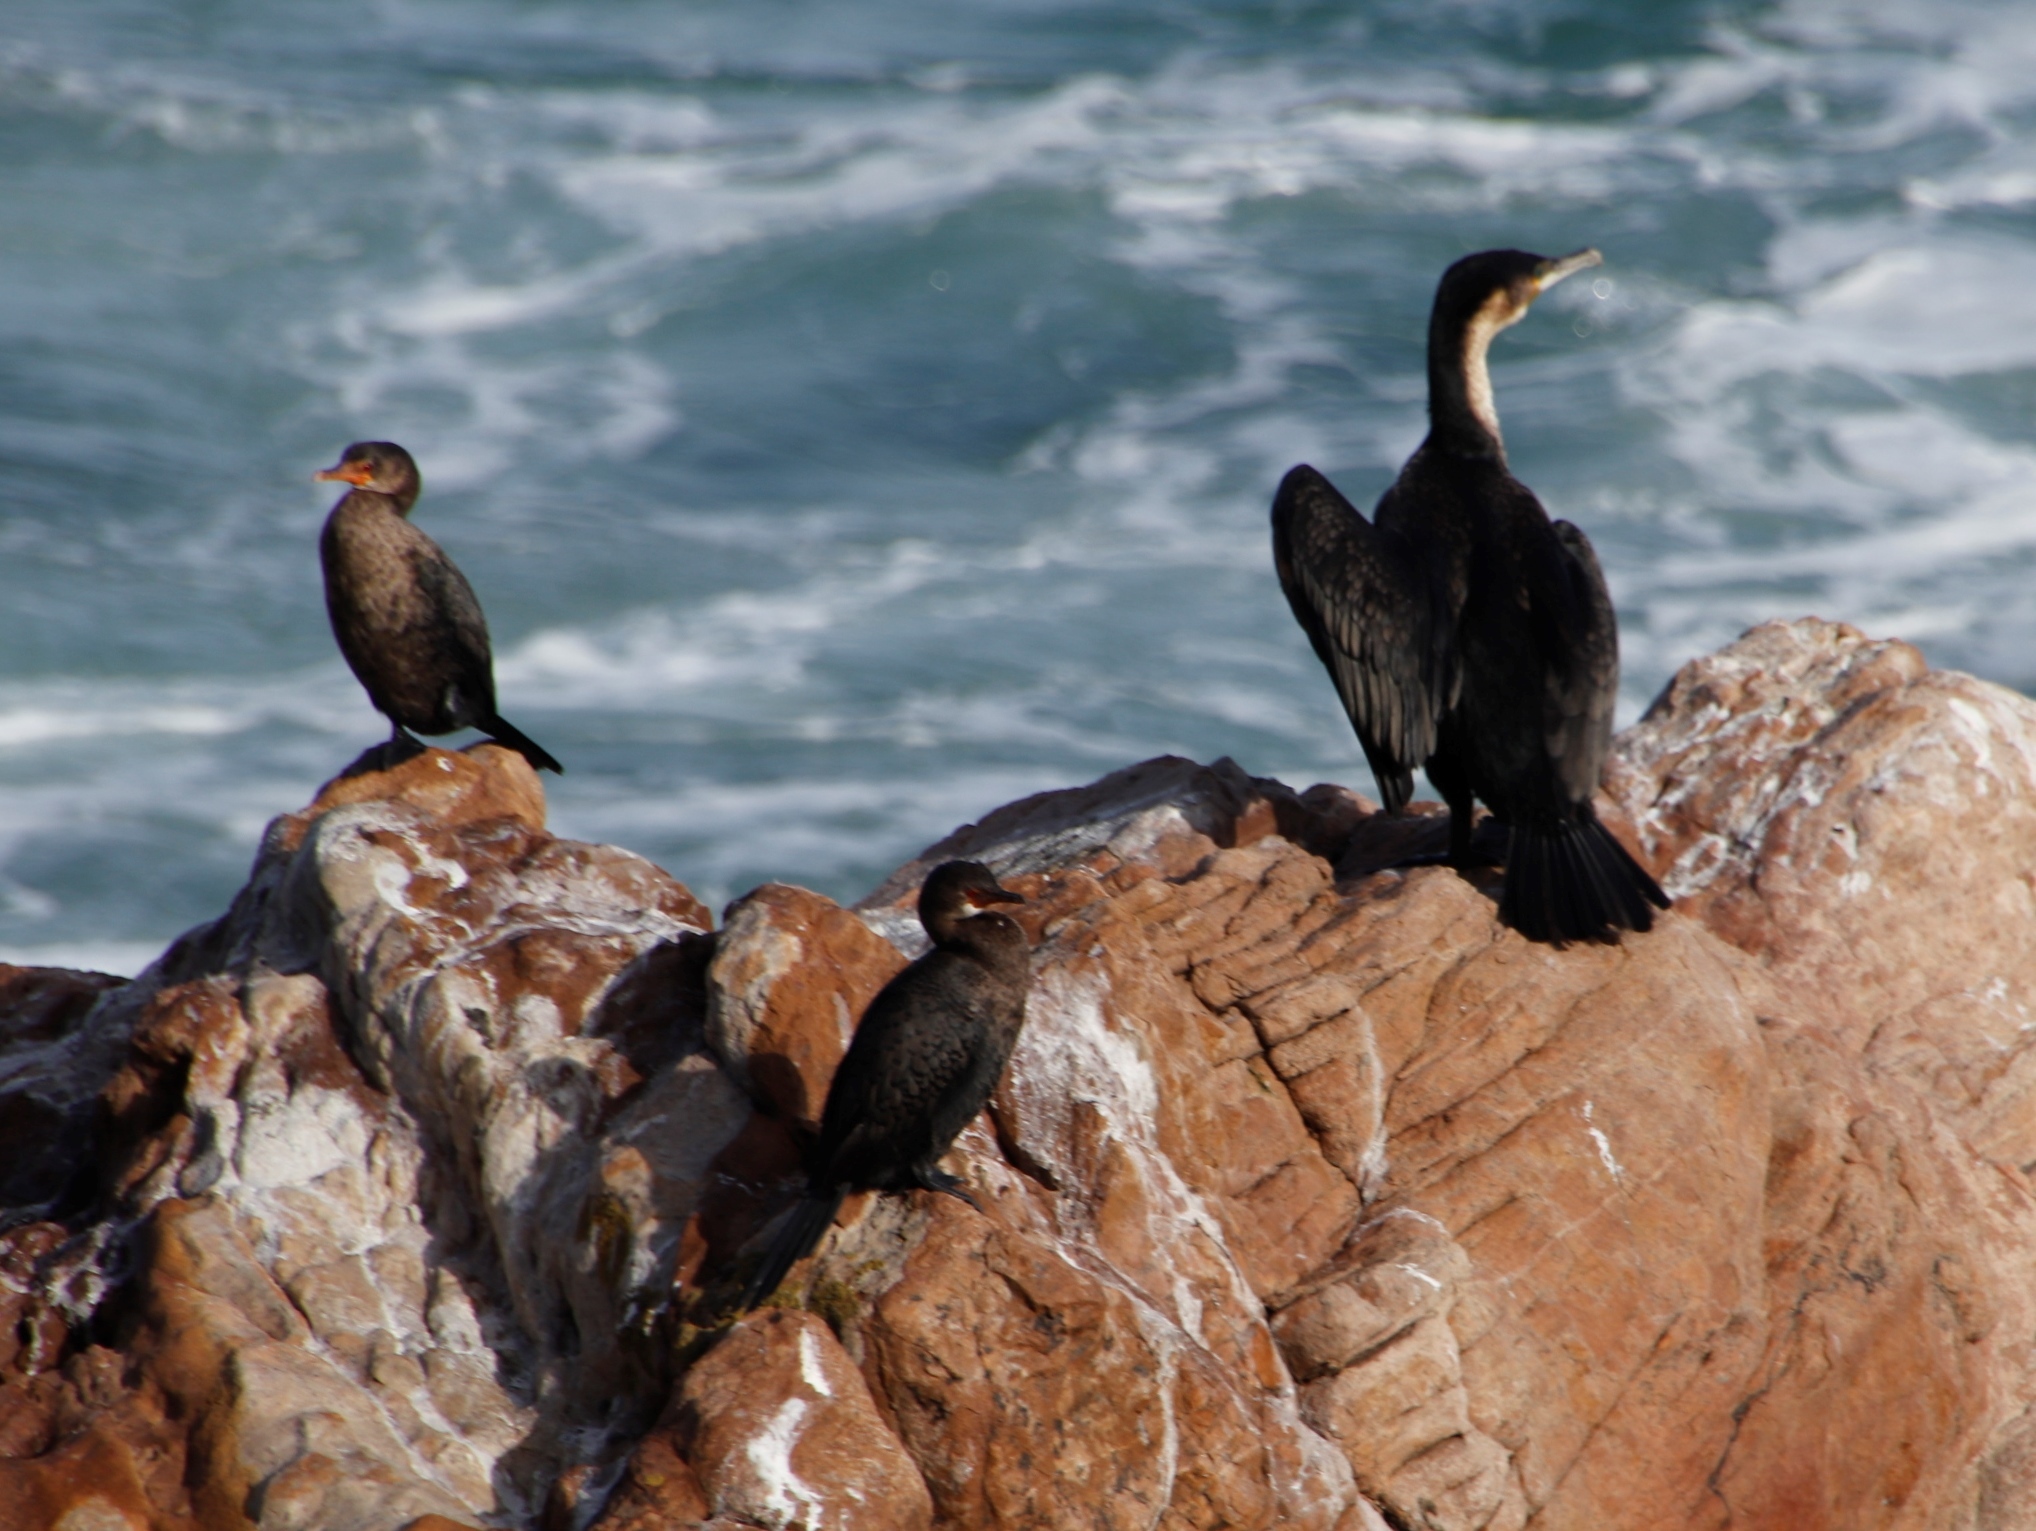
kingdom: Animalia
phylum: Chordata
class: Aves
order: Suliformes
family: Phalacrocoracidae
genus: Phalacrocorax
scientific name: Phalacrocorax carbo
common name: Great cormorant
